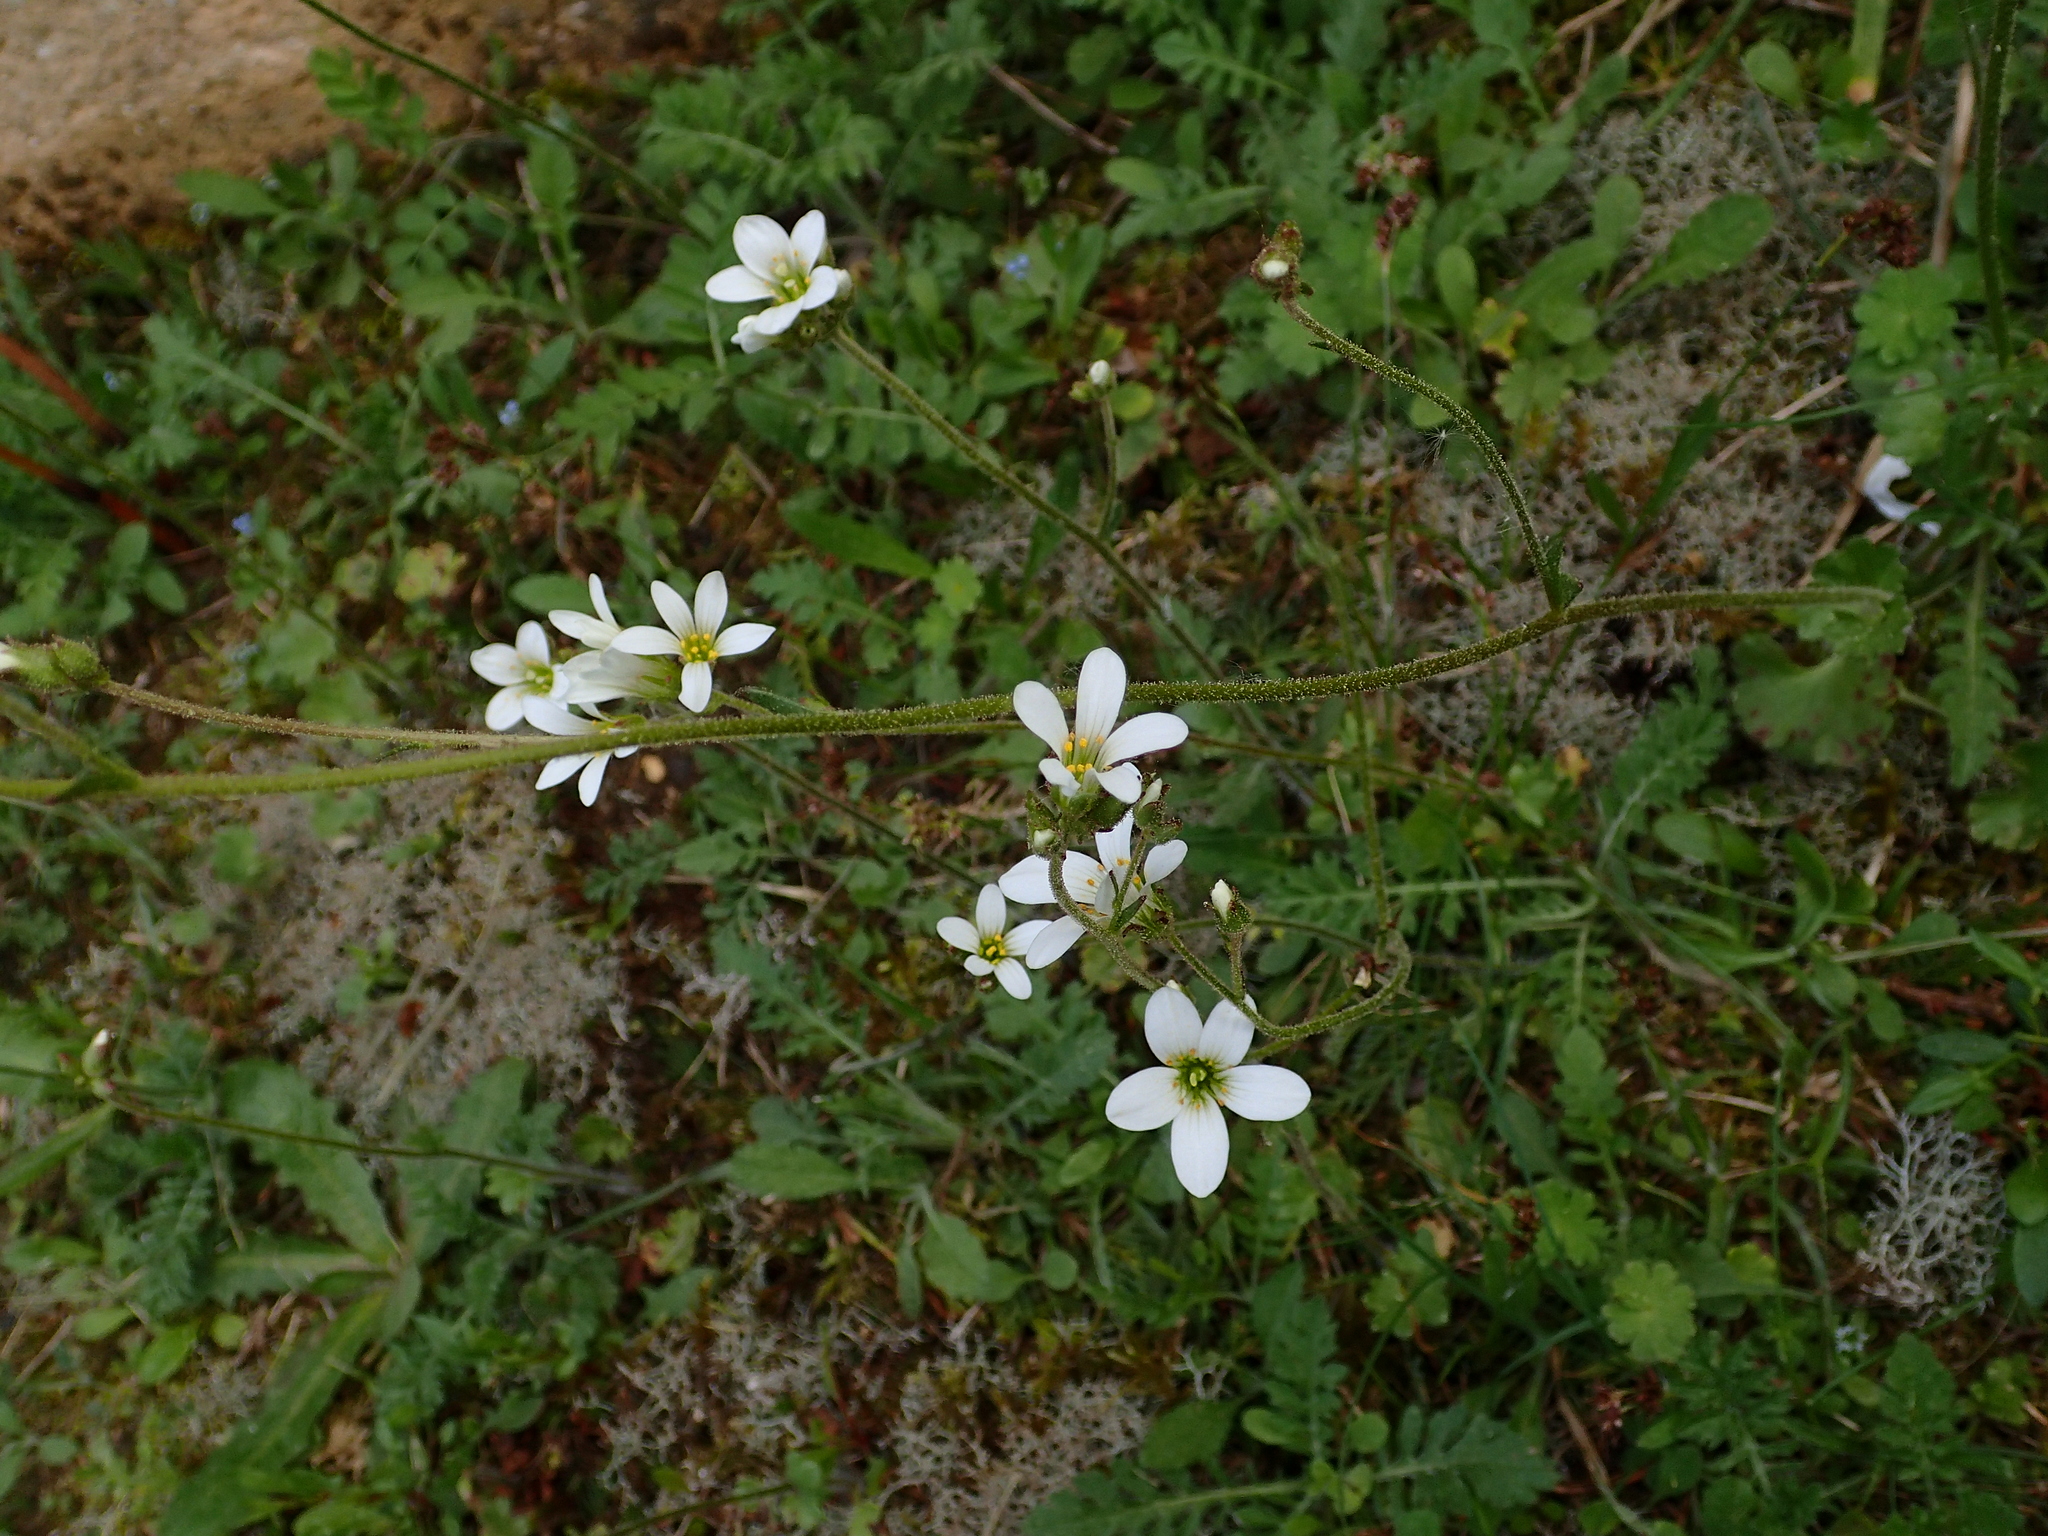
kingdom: Plantae
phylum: Tracheophyta
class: Magnoliopsida
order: Saxifragales
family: Saxifragaceae
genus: Saxifraga
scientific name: Saxifraga granulata
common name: Meadow saxifrage
